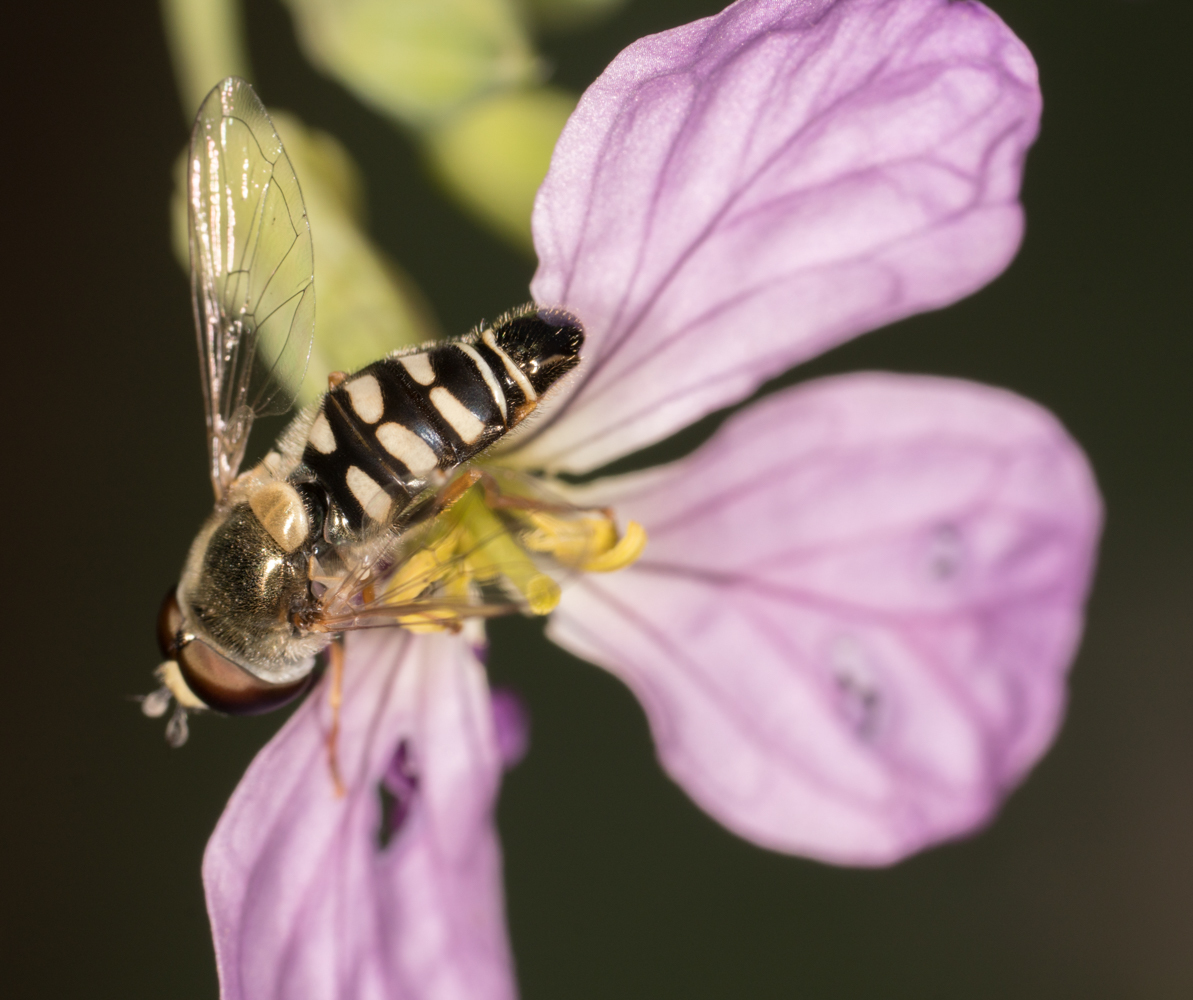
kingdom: Animalia
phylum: Arthropoda
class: Insecta
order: Diptera
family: Syrphidae
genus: Eupeodes
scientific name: Eupeodes volucris
